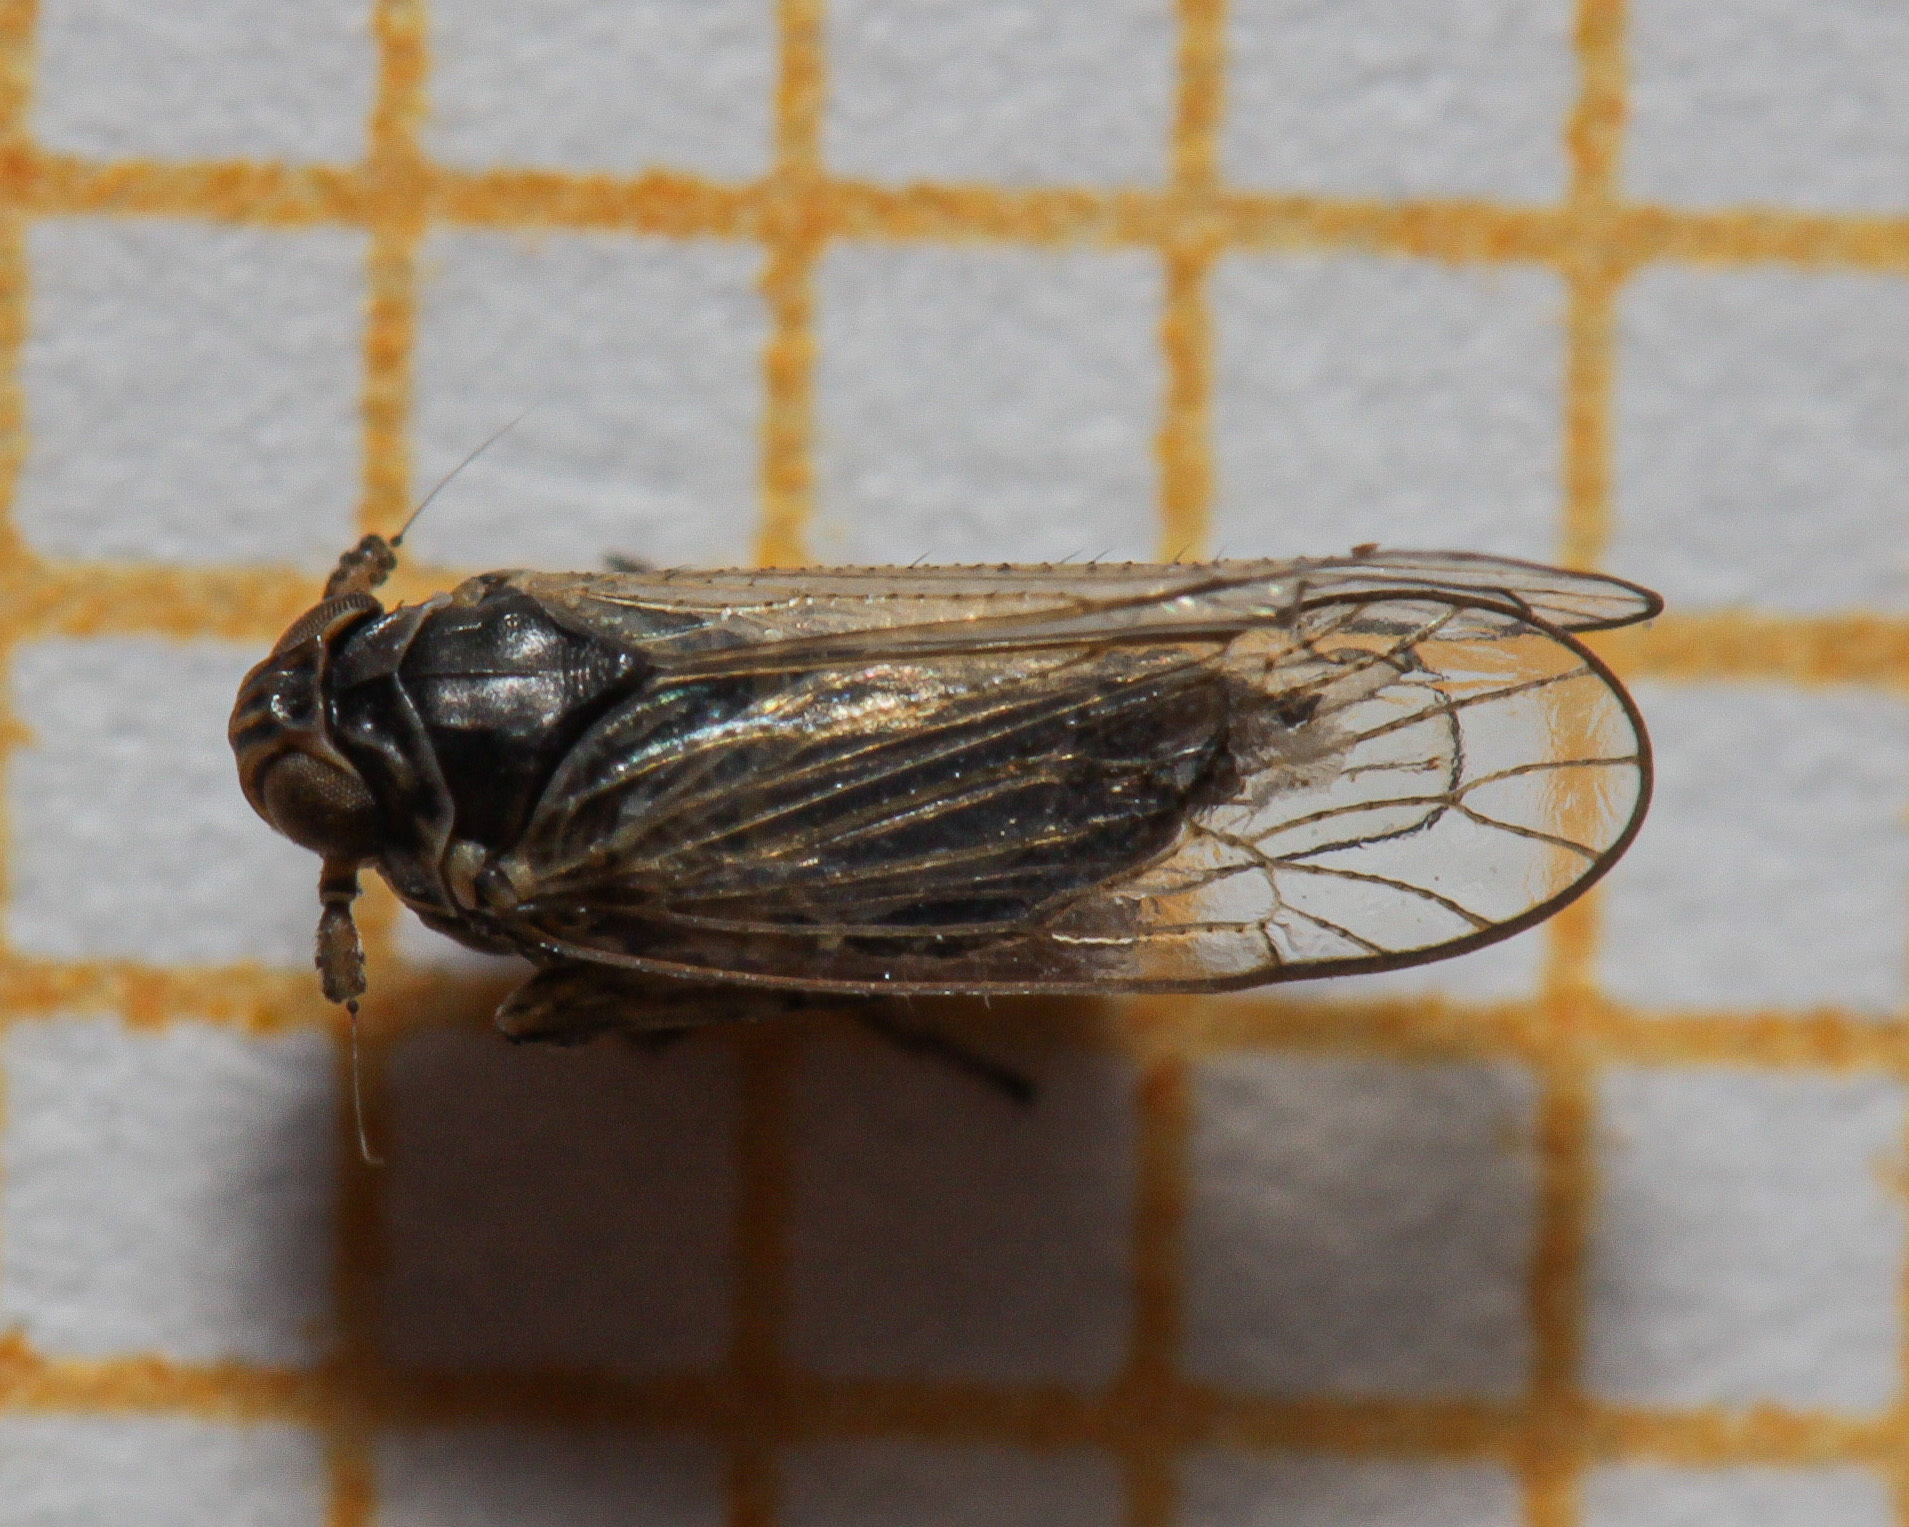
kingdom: Animalia
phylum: Arthropoda
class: Insecta
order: Hemiptera
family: Delphacidae
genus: Javesella
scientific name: Javesella dubia
